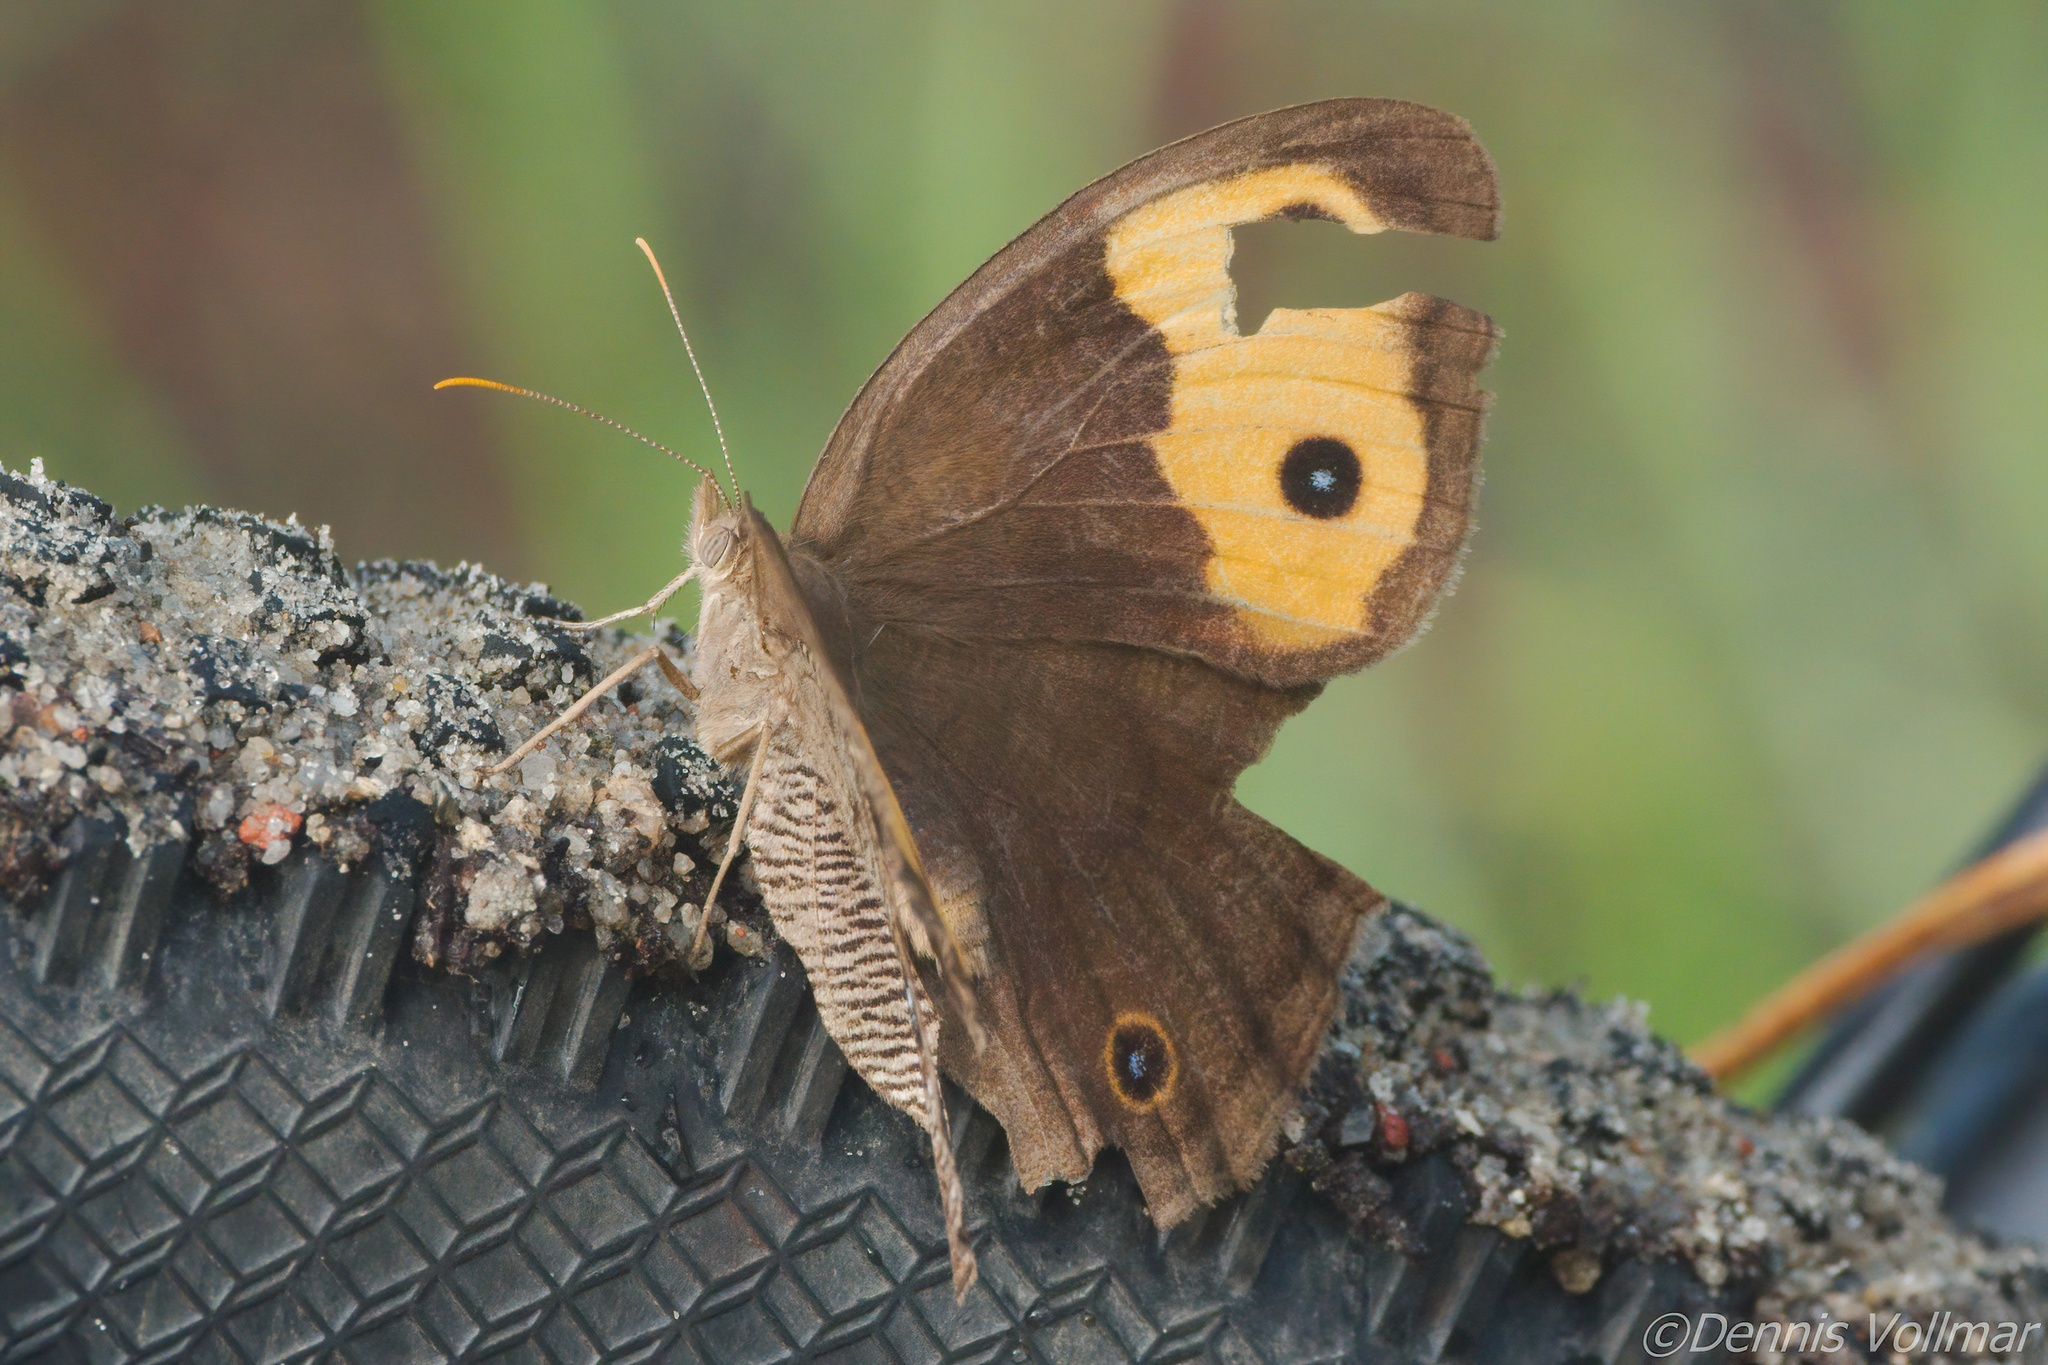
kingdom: Animalia
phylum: Arthropoda
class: Insecta
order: Lepidoptera
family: Nymphalidae
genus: Cercyonis
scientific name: Cercyonis pegala
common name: Common wood-nymph
